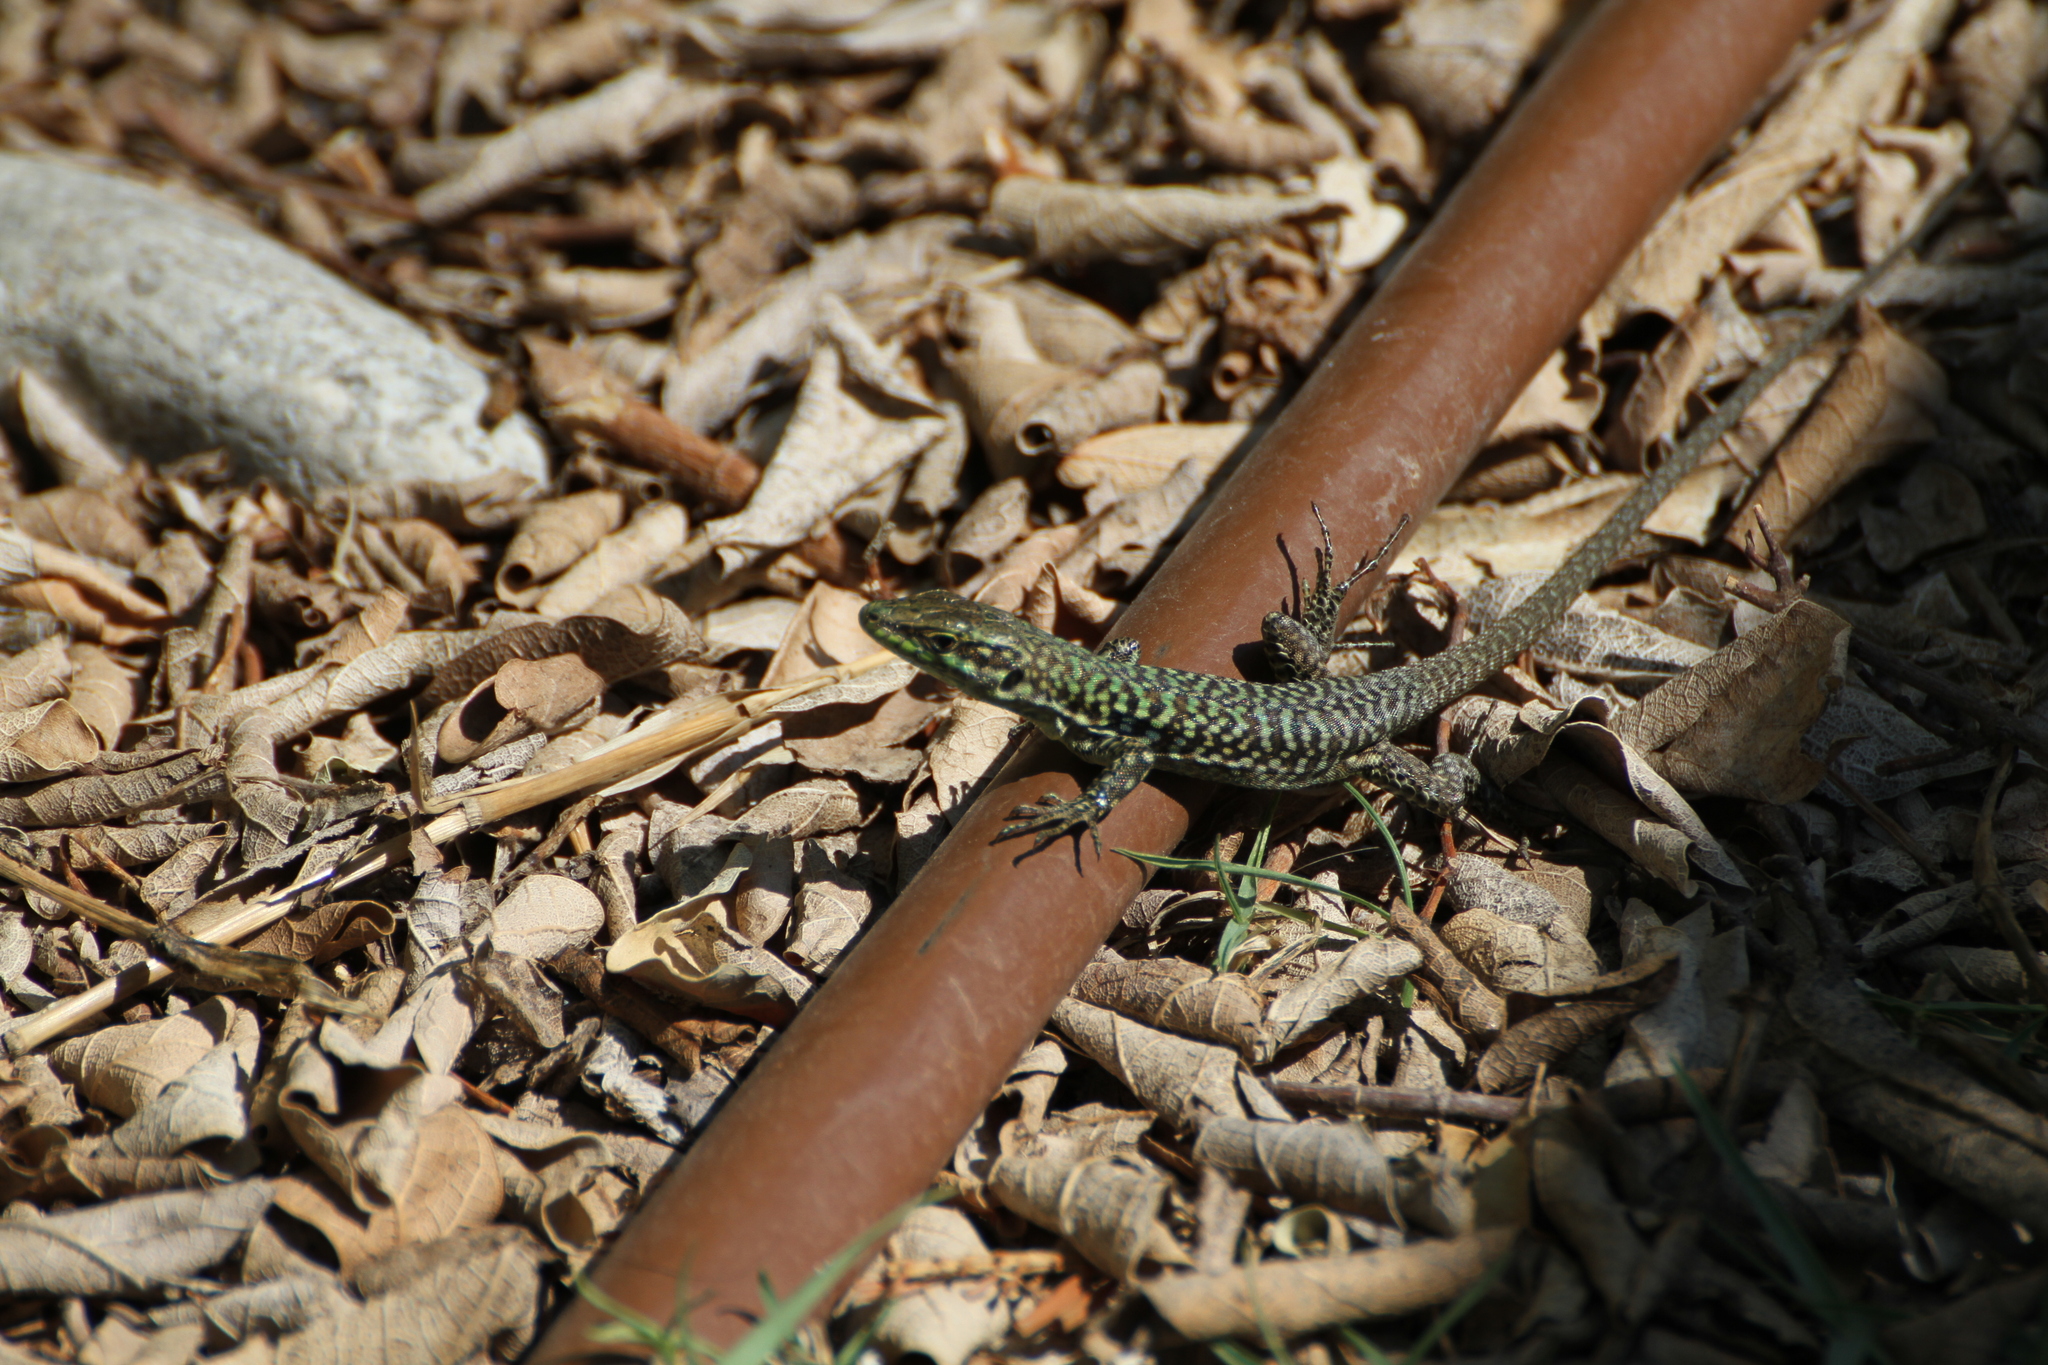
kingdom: Animalia
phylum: Chordata
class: Squamata
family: Lacertidae
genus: Podarcis
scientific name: Podarcis siculus
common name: Italian wall lizard
